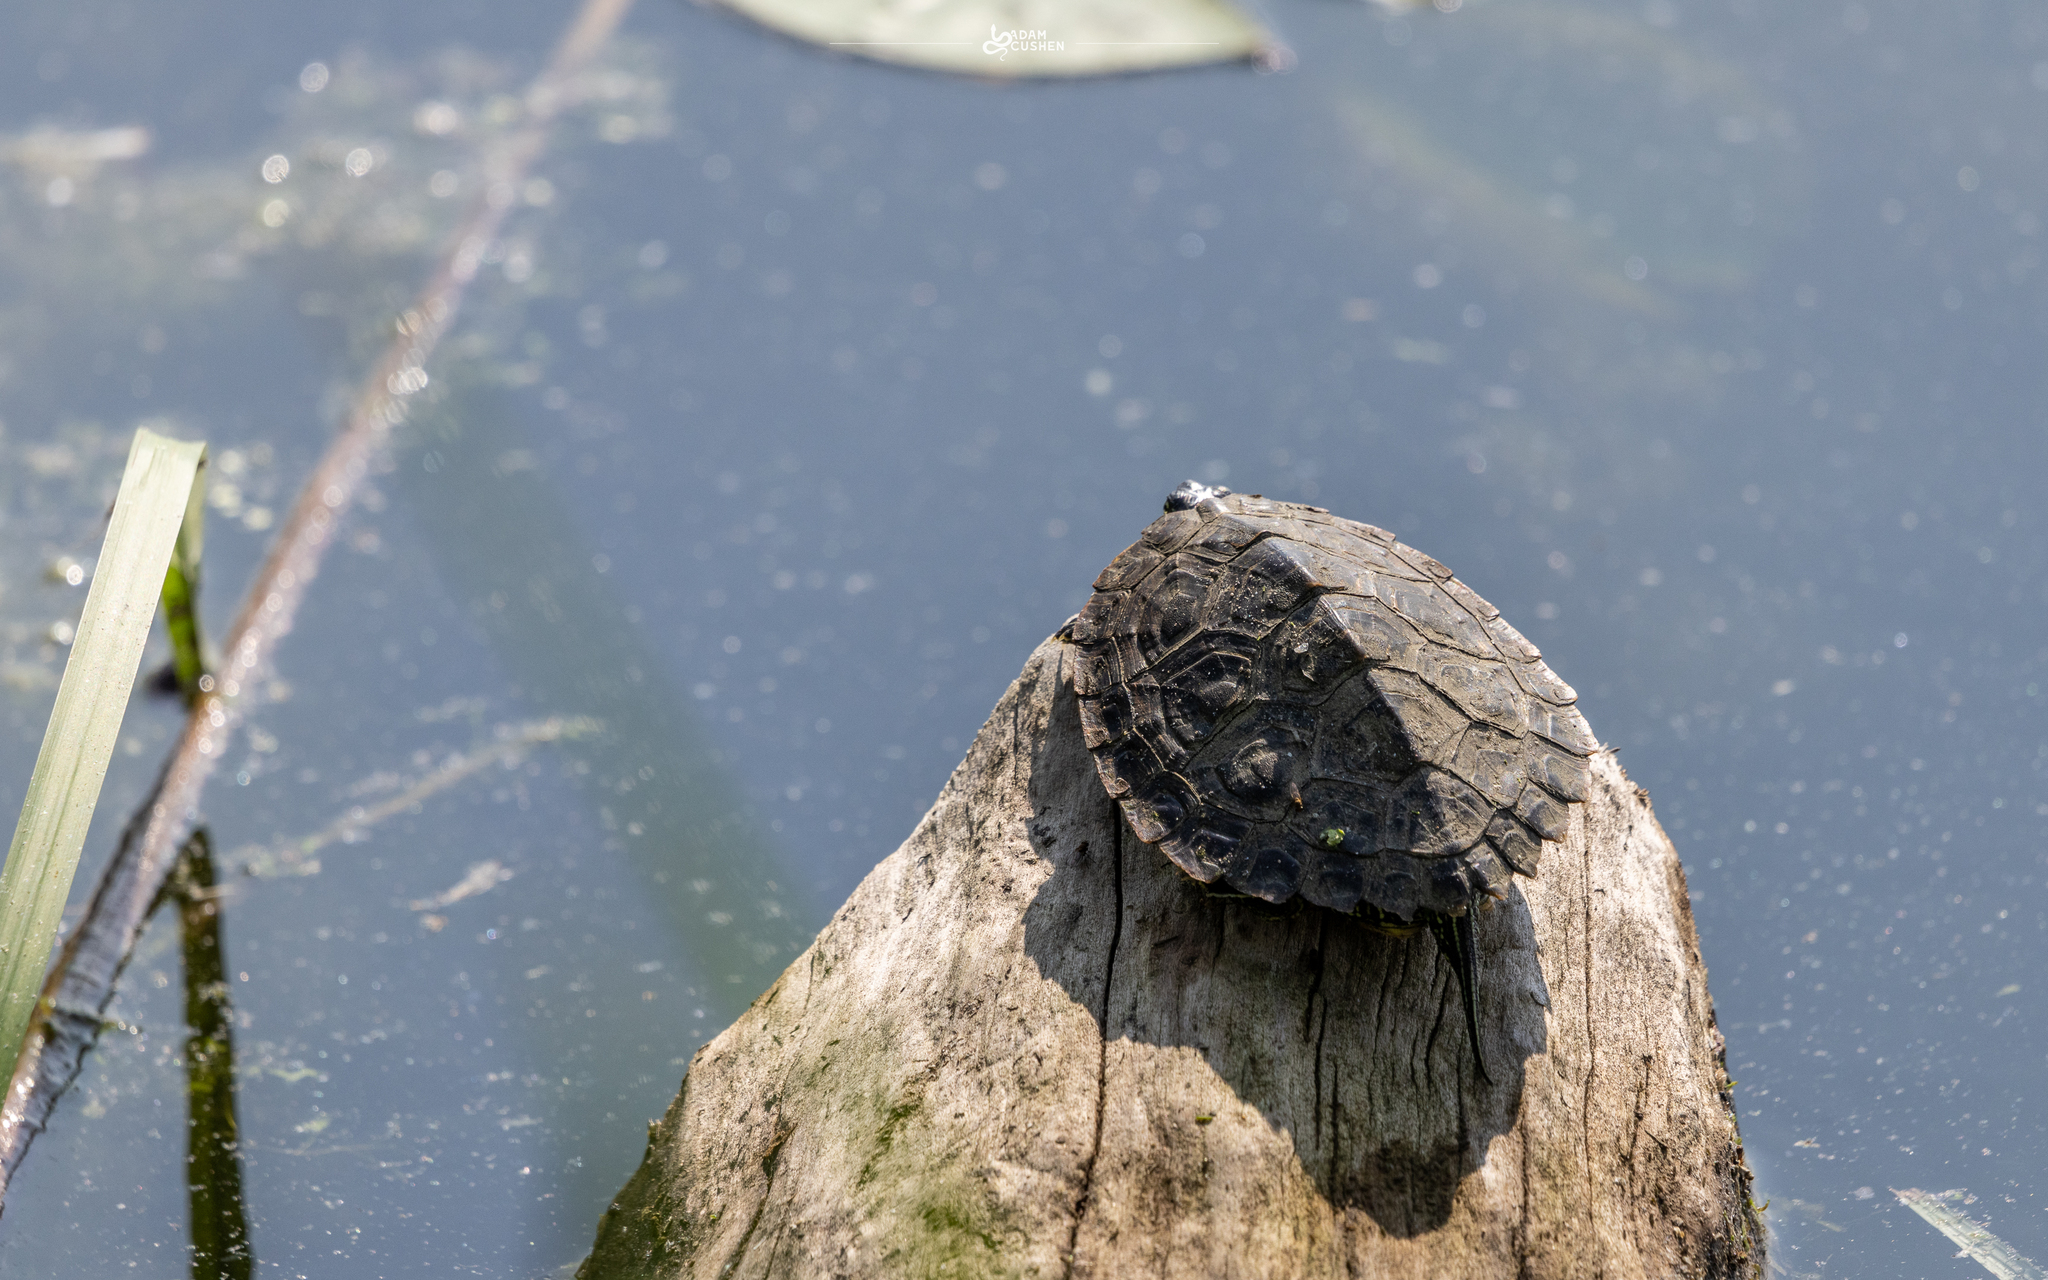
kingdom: Animalia
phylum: Chordata
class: Testudines
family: Emydidae
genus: Graptemys
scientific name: Graptemys geographica
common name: Common map turtle
